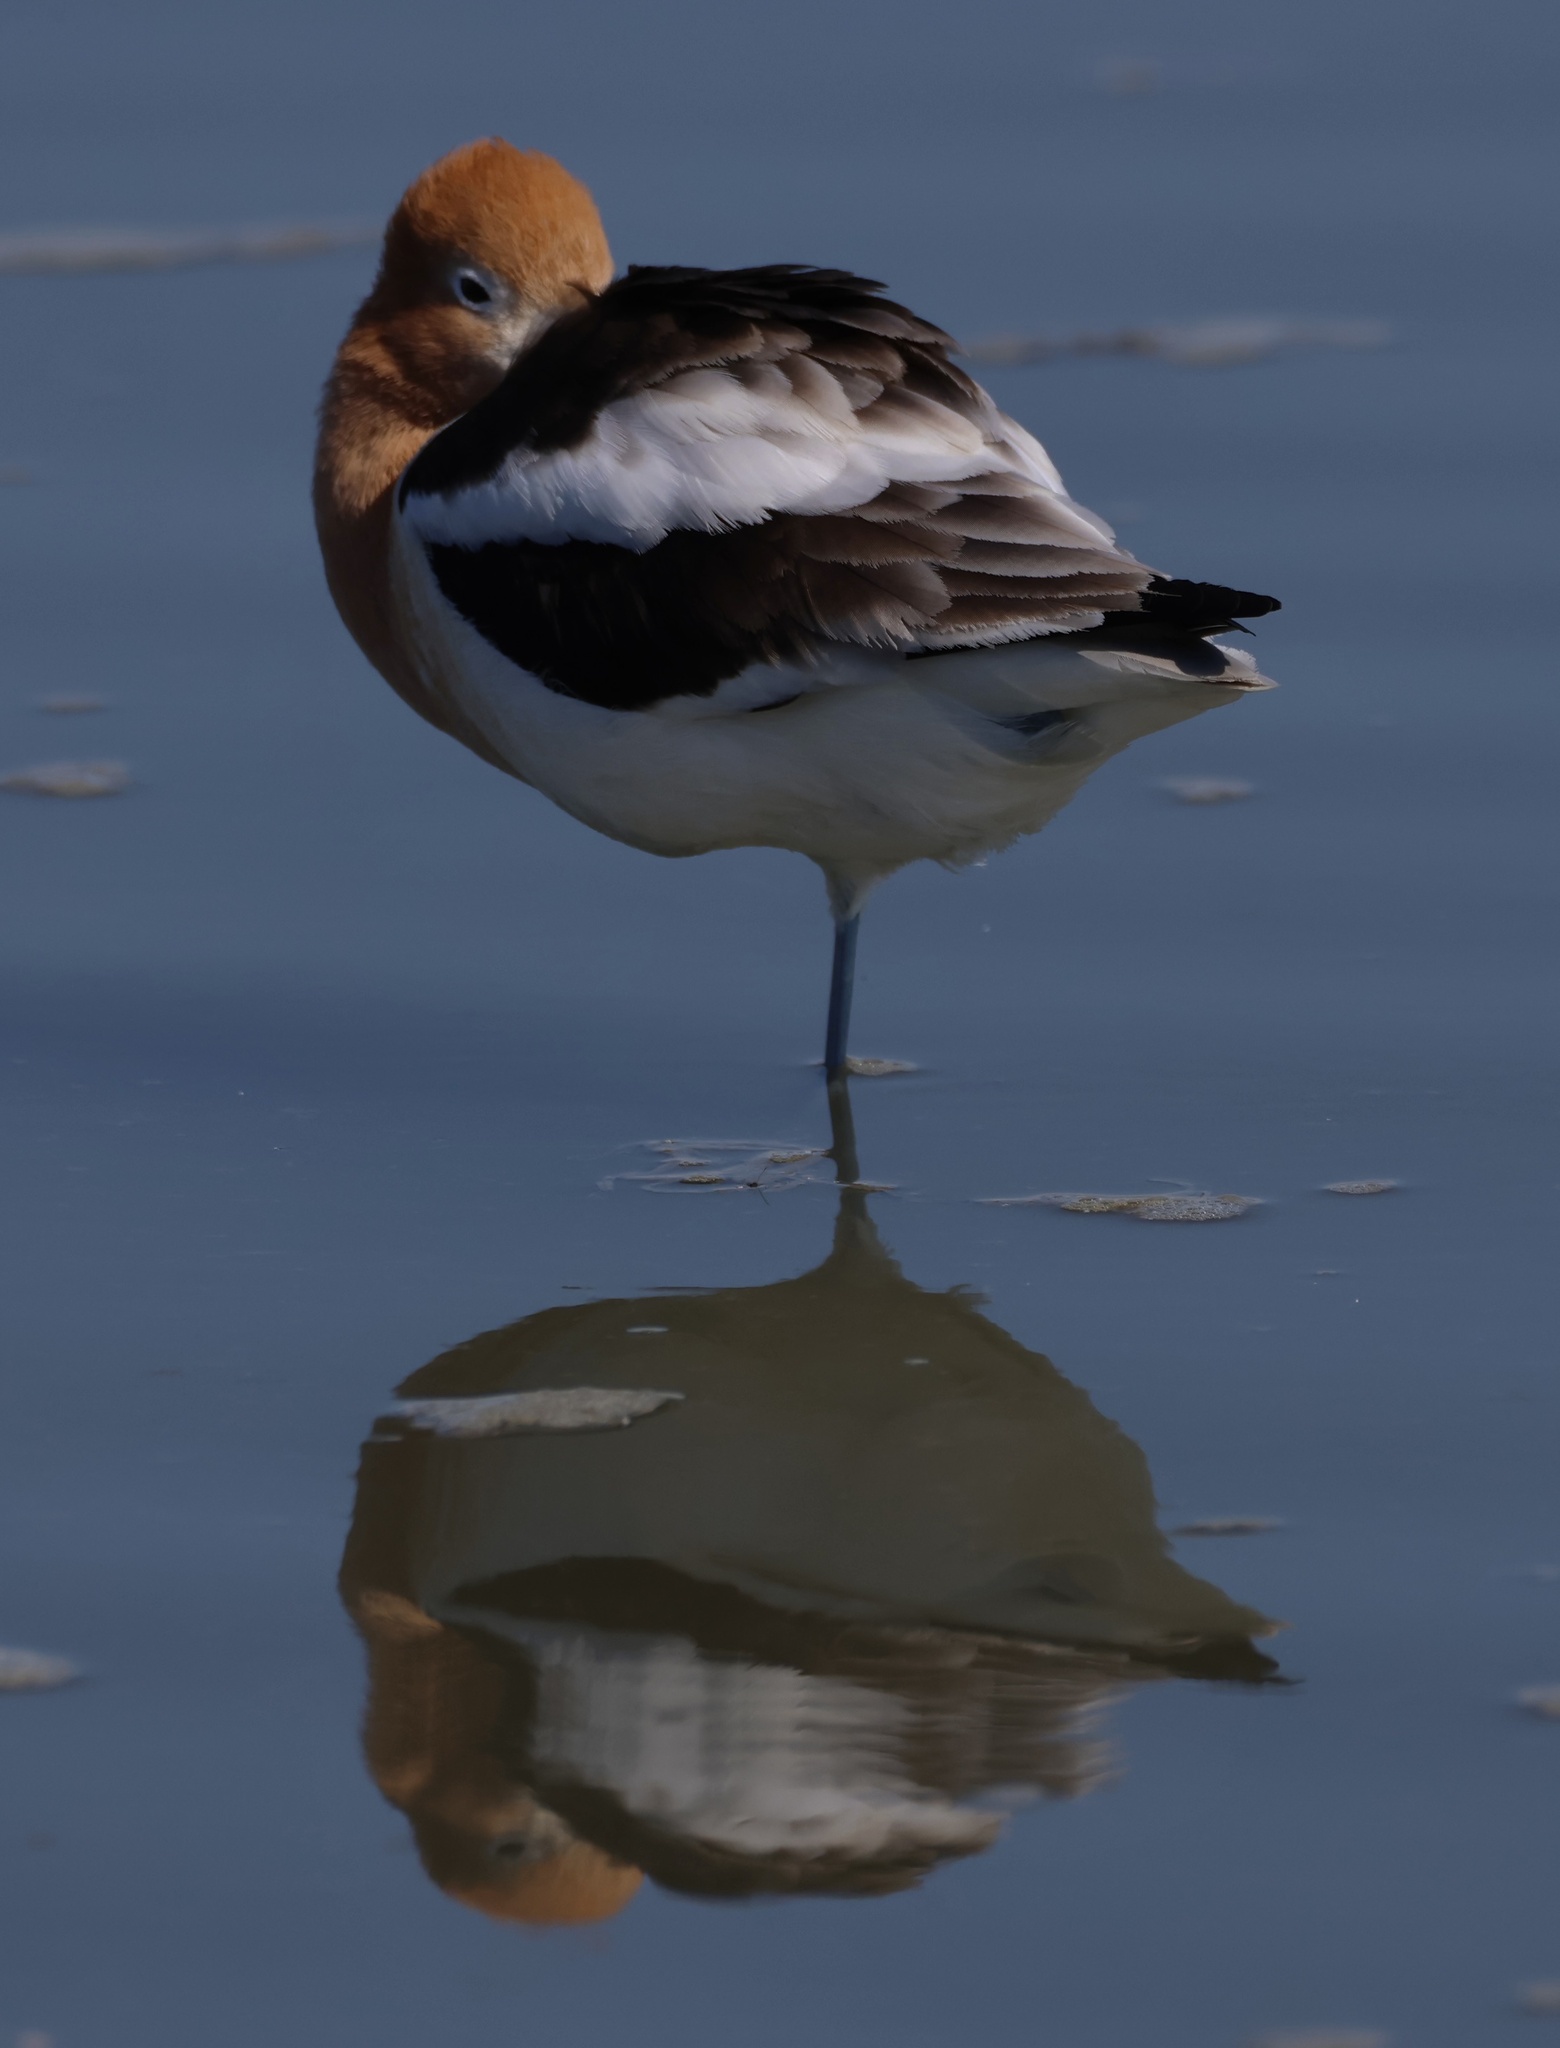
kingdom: Animalia
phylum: Chordata
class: Aves
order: Charadriiformes
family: Recurvirostridae
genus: Recurvirostra
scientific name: Recurvirostra americana
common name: American avocet
